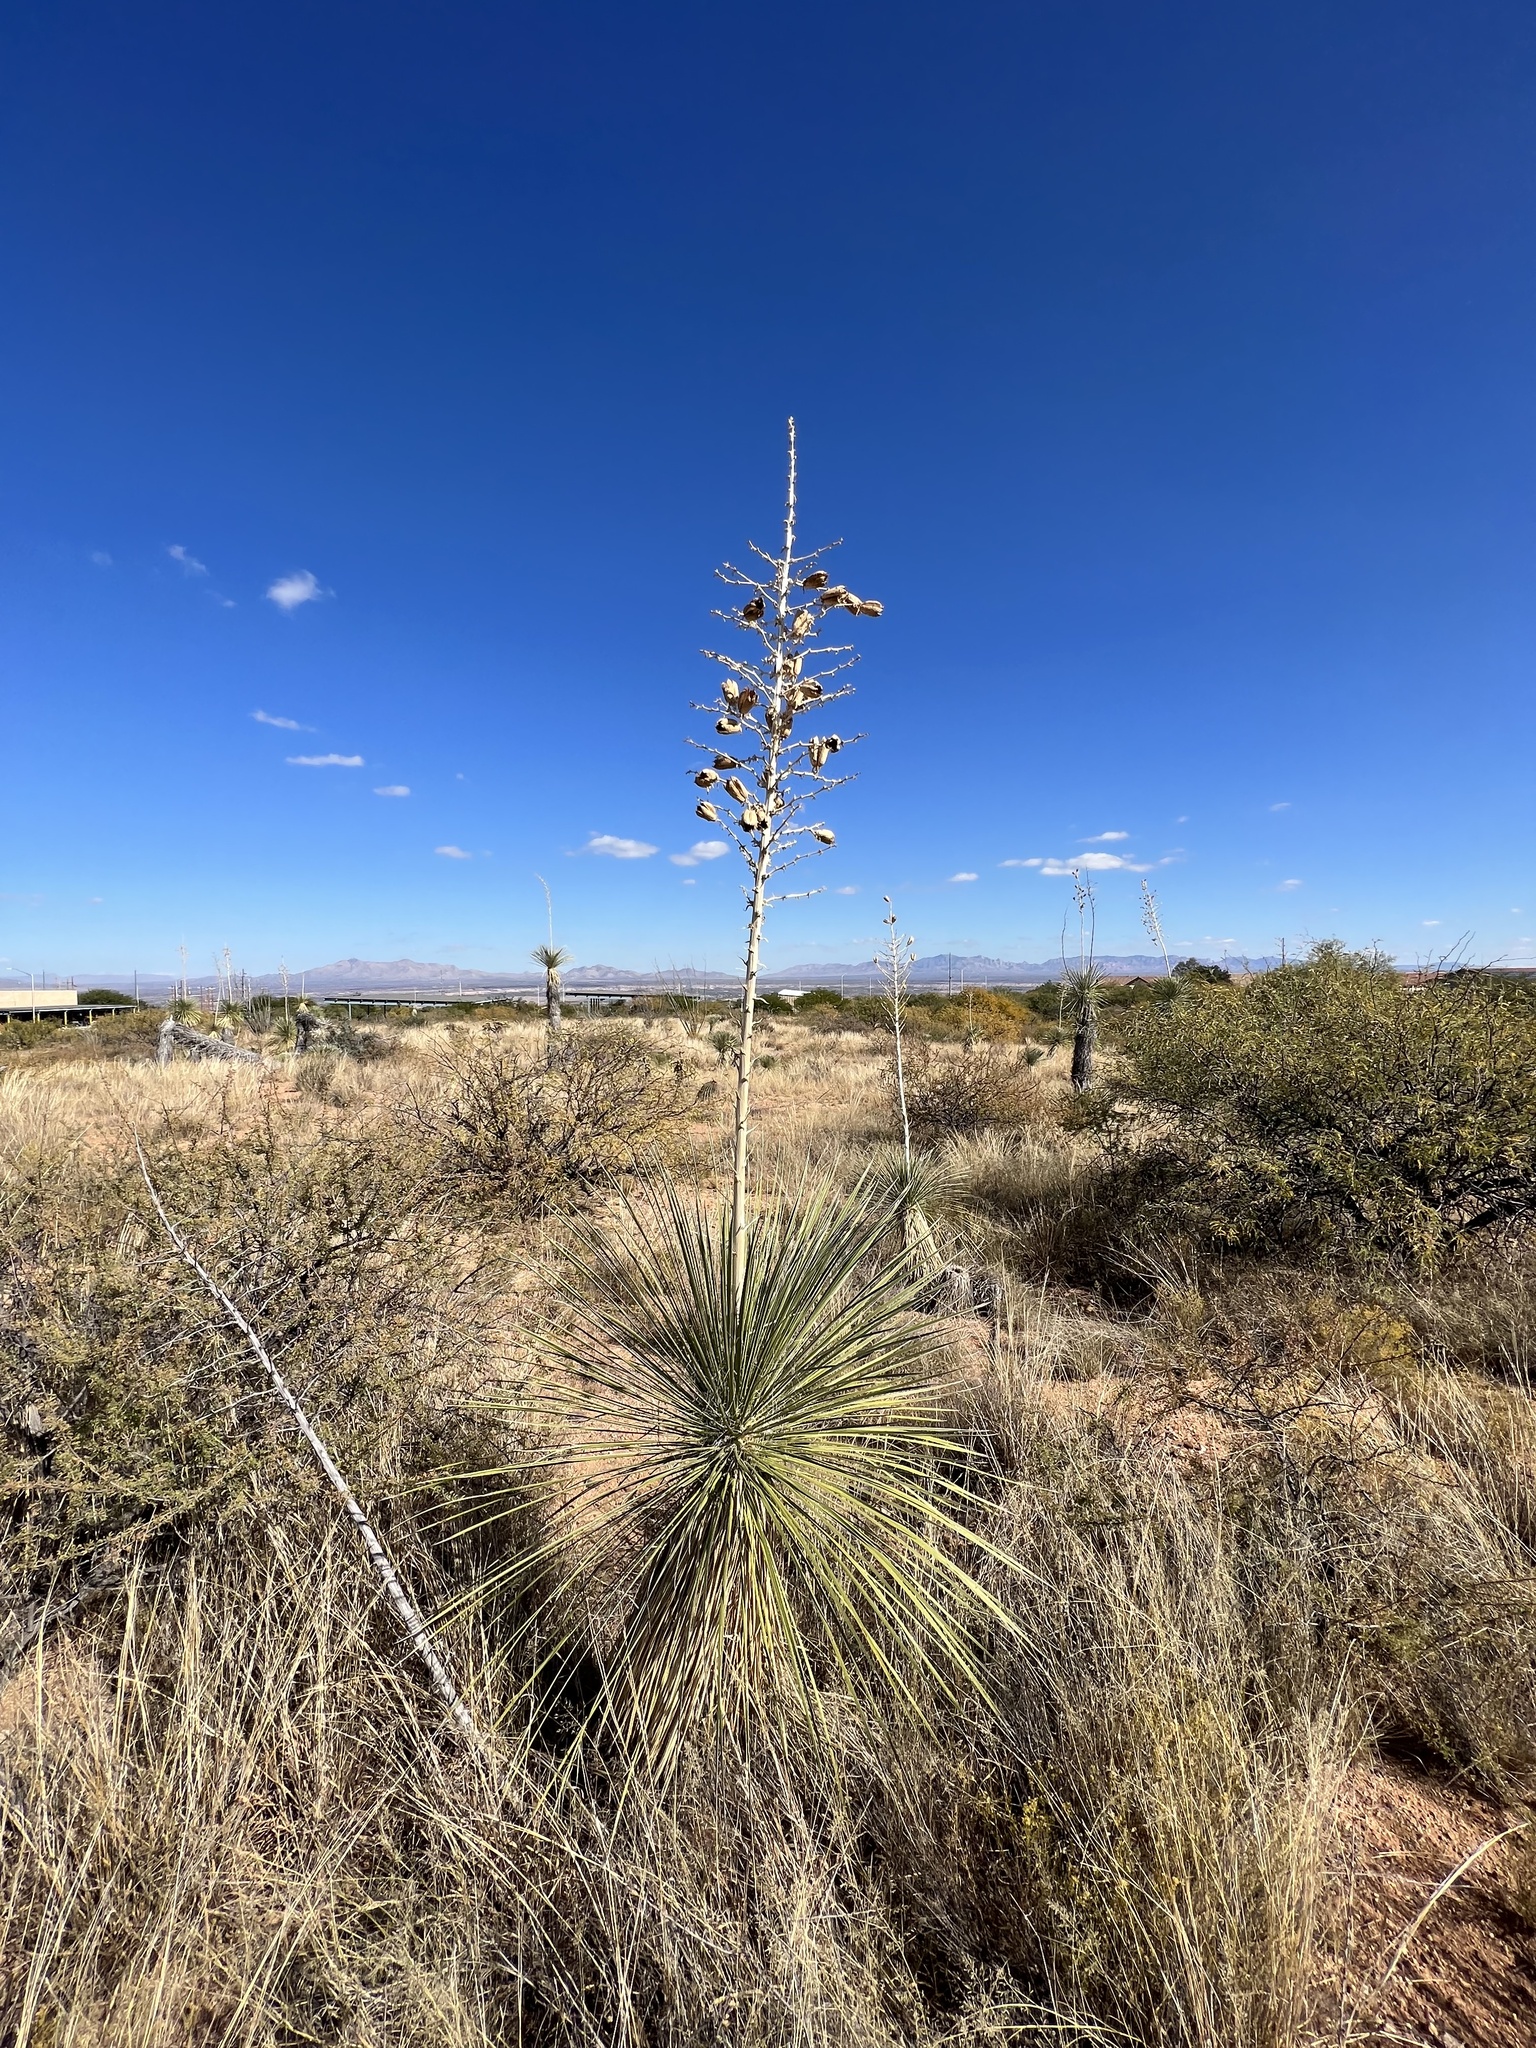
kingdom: Plantae
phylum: Tracheophyta
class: Liliopsida
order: Asparagales
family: Asparagaceae
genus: Yucca
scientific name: Yucca elata
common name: Palmella
